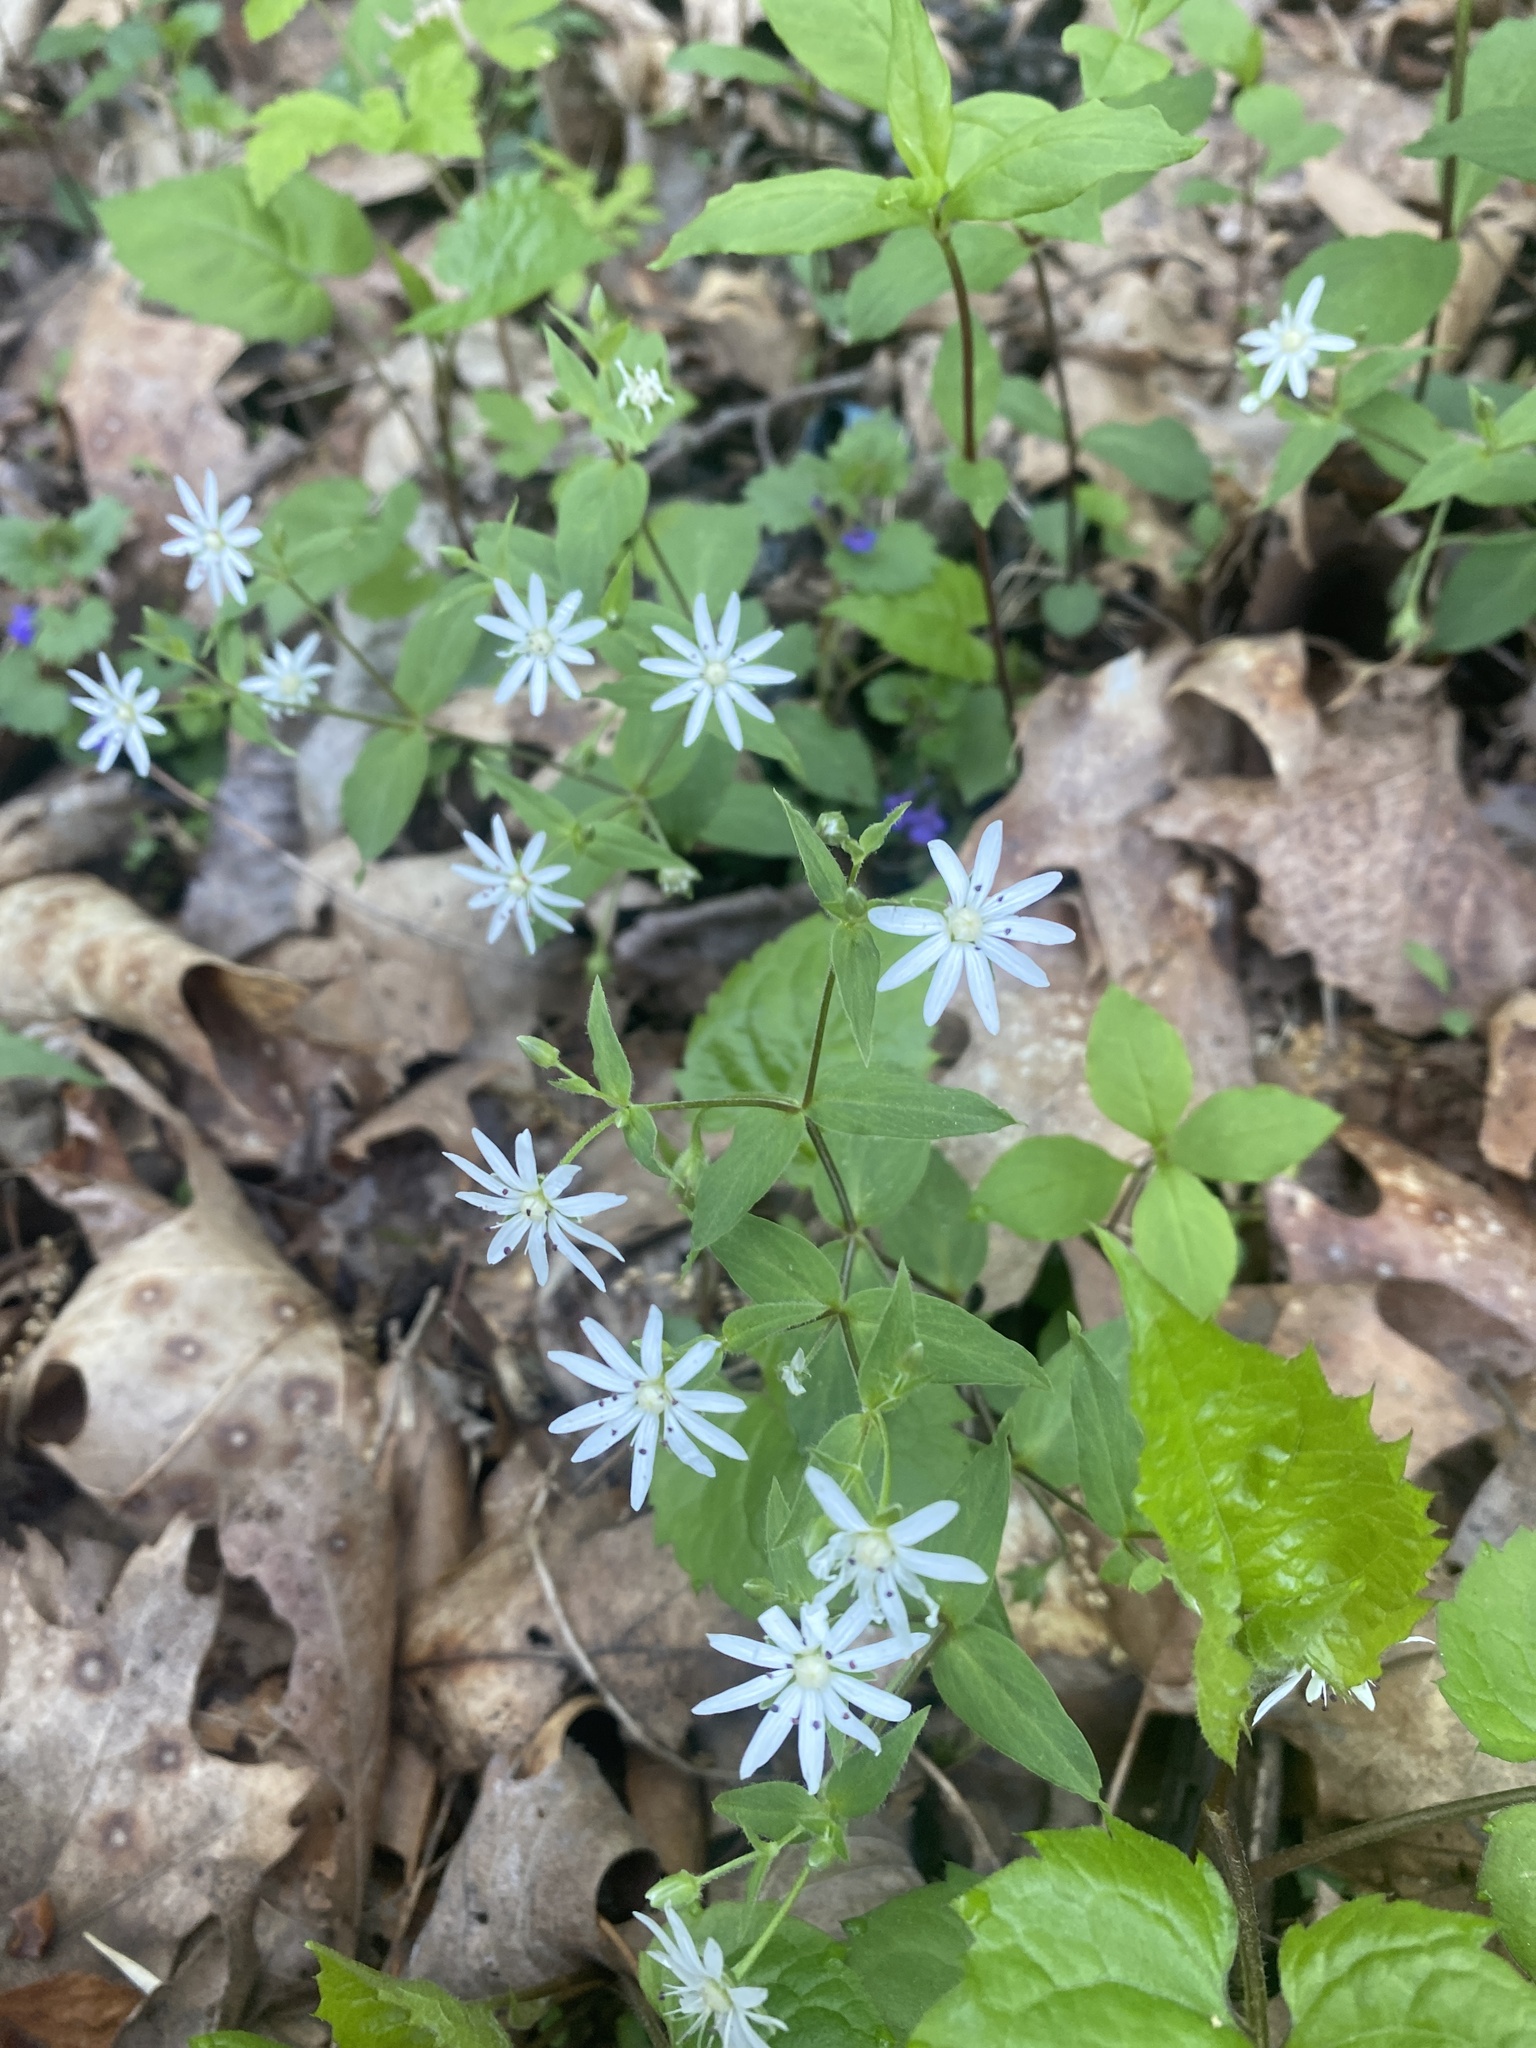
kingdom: Plantae
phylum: Tracheophyta
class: Magnoliopsida
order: Caryophyllales
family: Caryophyllaceae
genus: Stellaria
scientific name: Stellaria pubera
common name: Star chickweed
